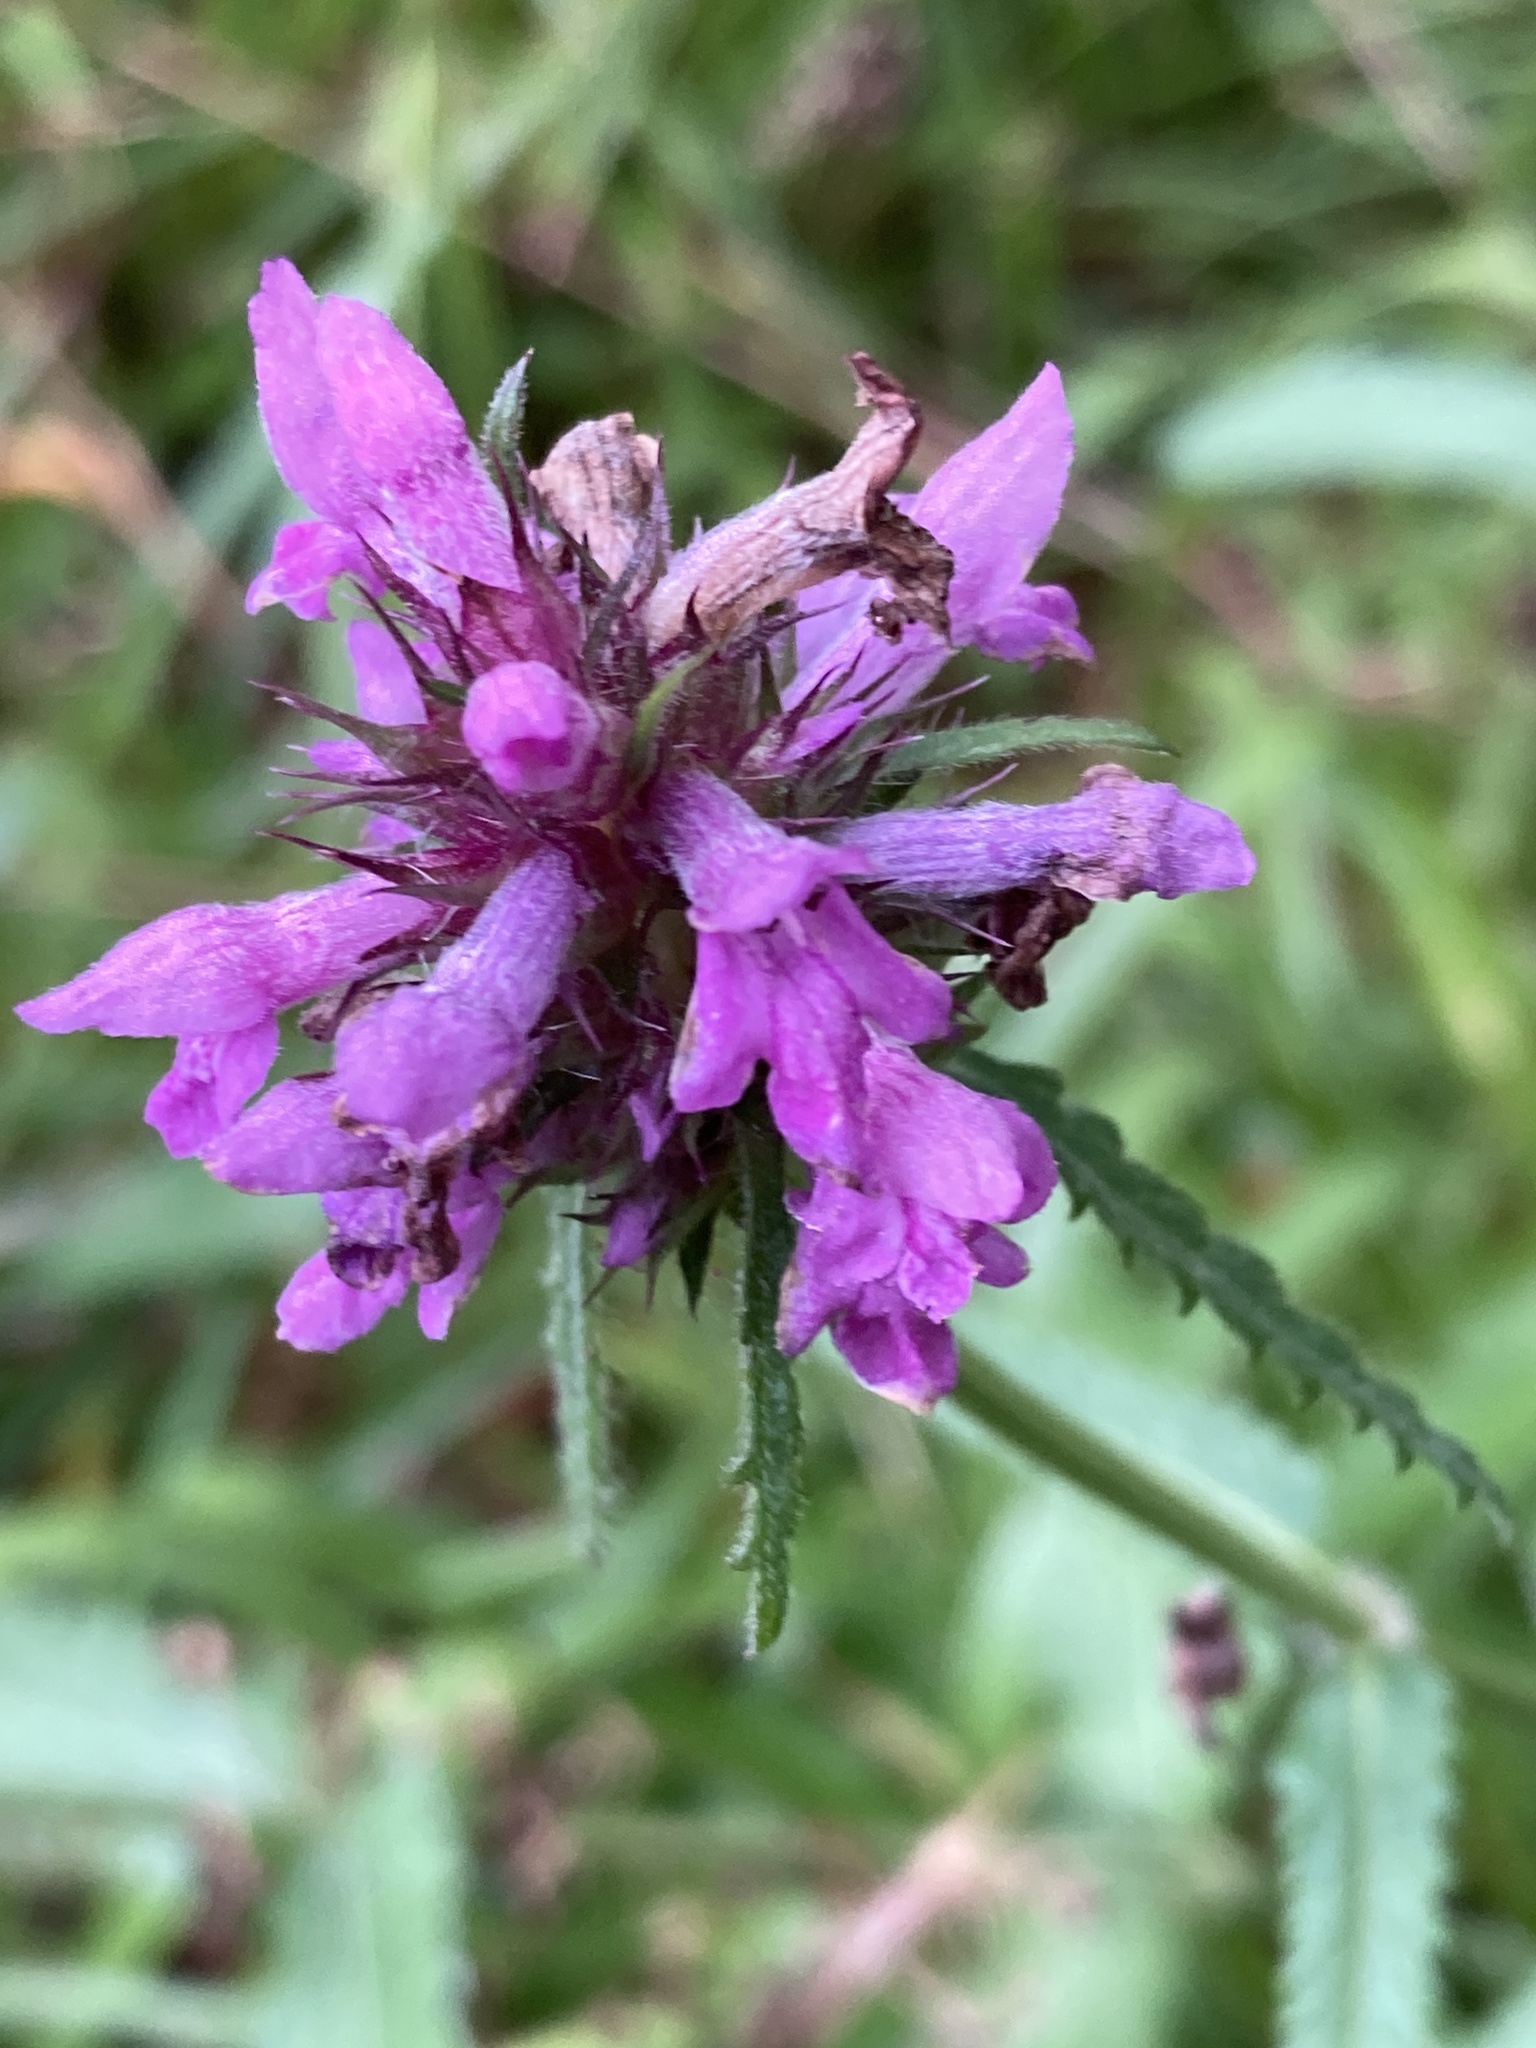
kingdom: Plantae
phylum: Tracheophyta
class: Magnoliopsida
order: Lamiales
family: Lamiaceae
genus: Betonica
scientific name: Betonica officinalis
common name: Bishop's-wort
